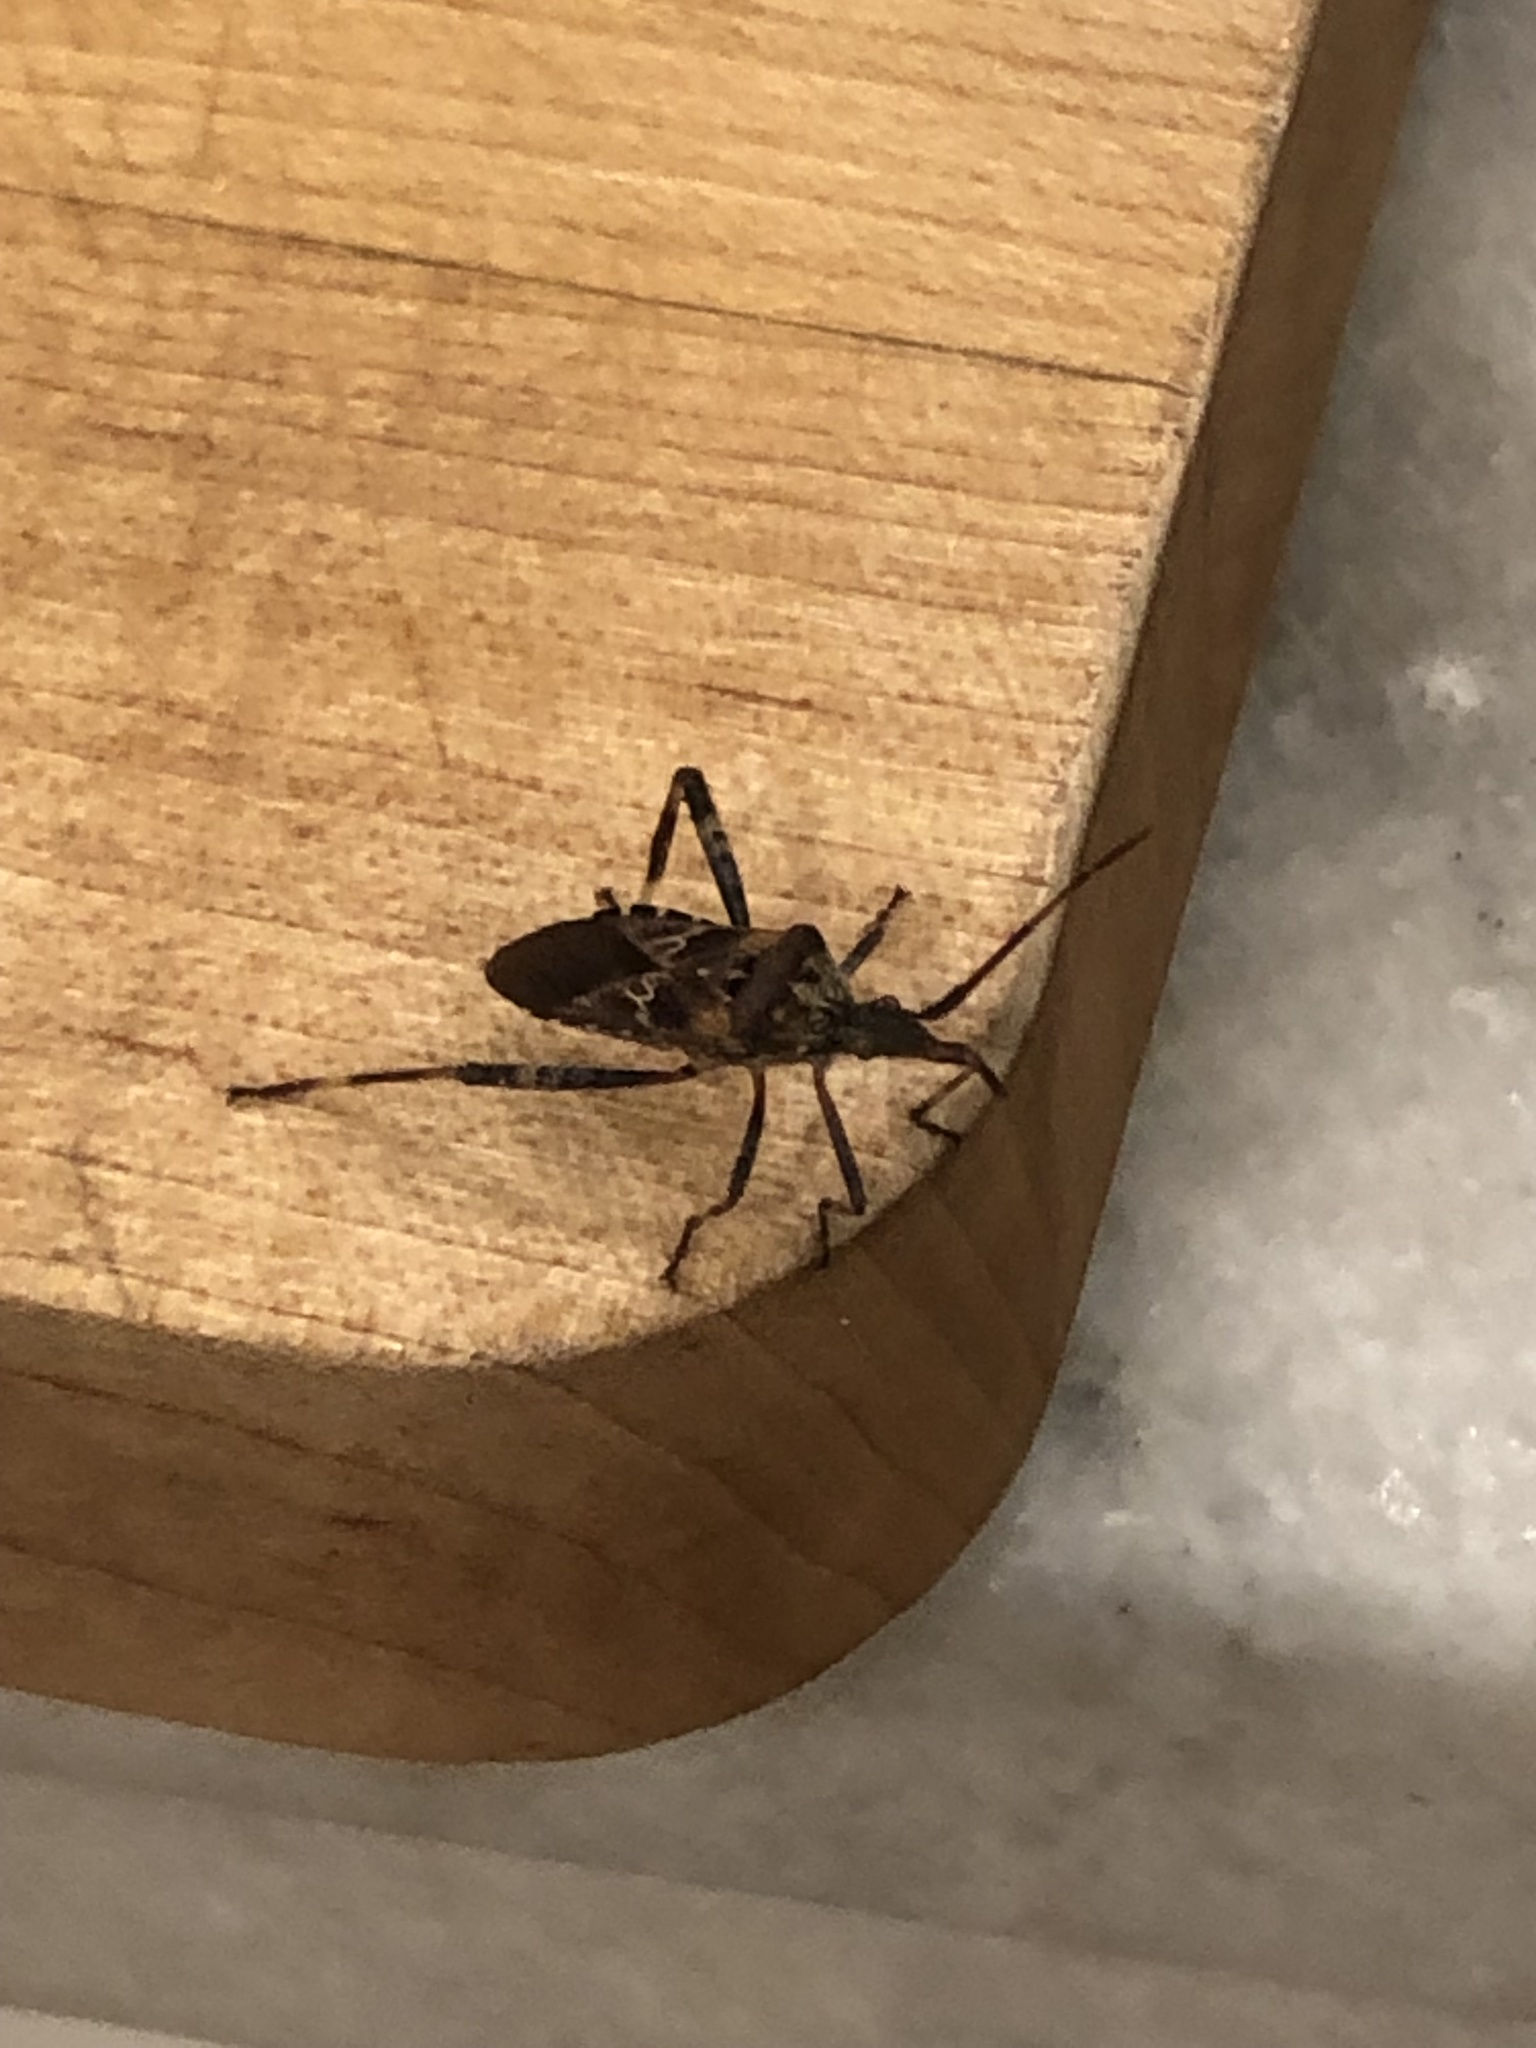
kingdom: Animalia
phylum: Arthropoda
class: Insecta
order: Hemiptera
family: Coreidae
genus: Leptoglossus
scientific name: Leptoglossus occidentalis
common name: Western conifer-seed bug
